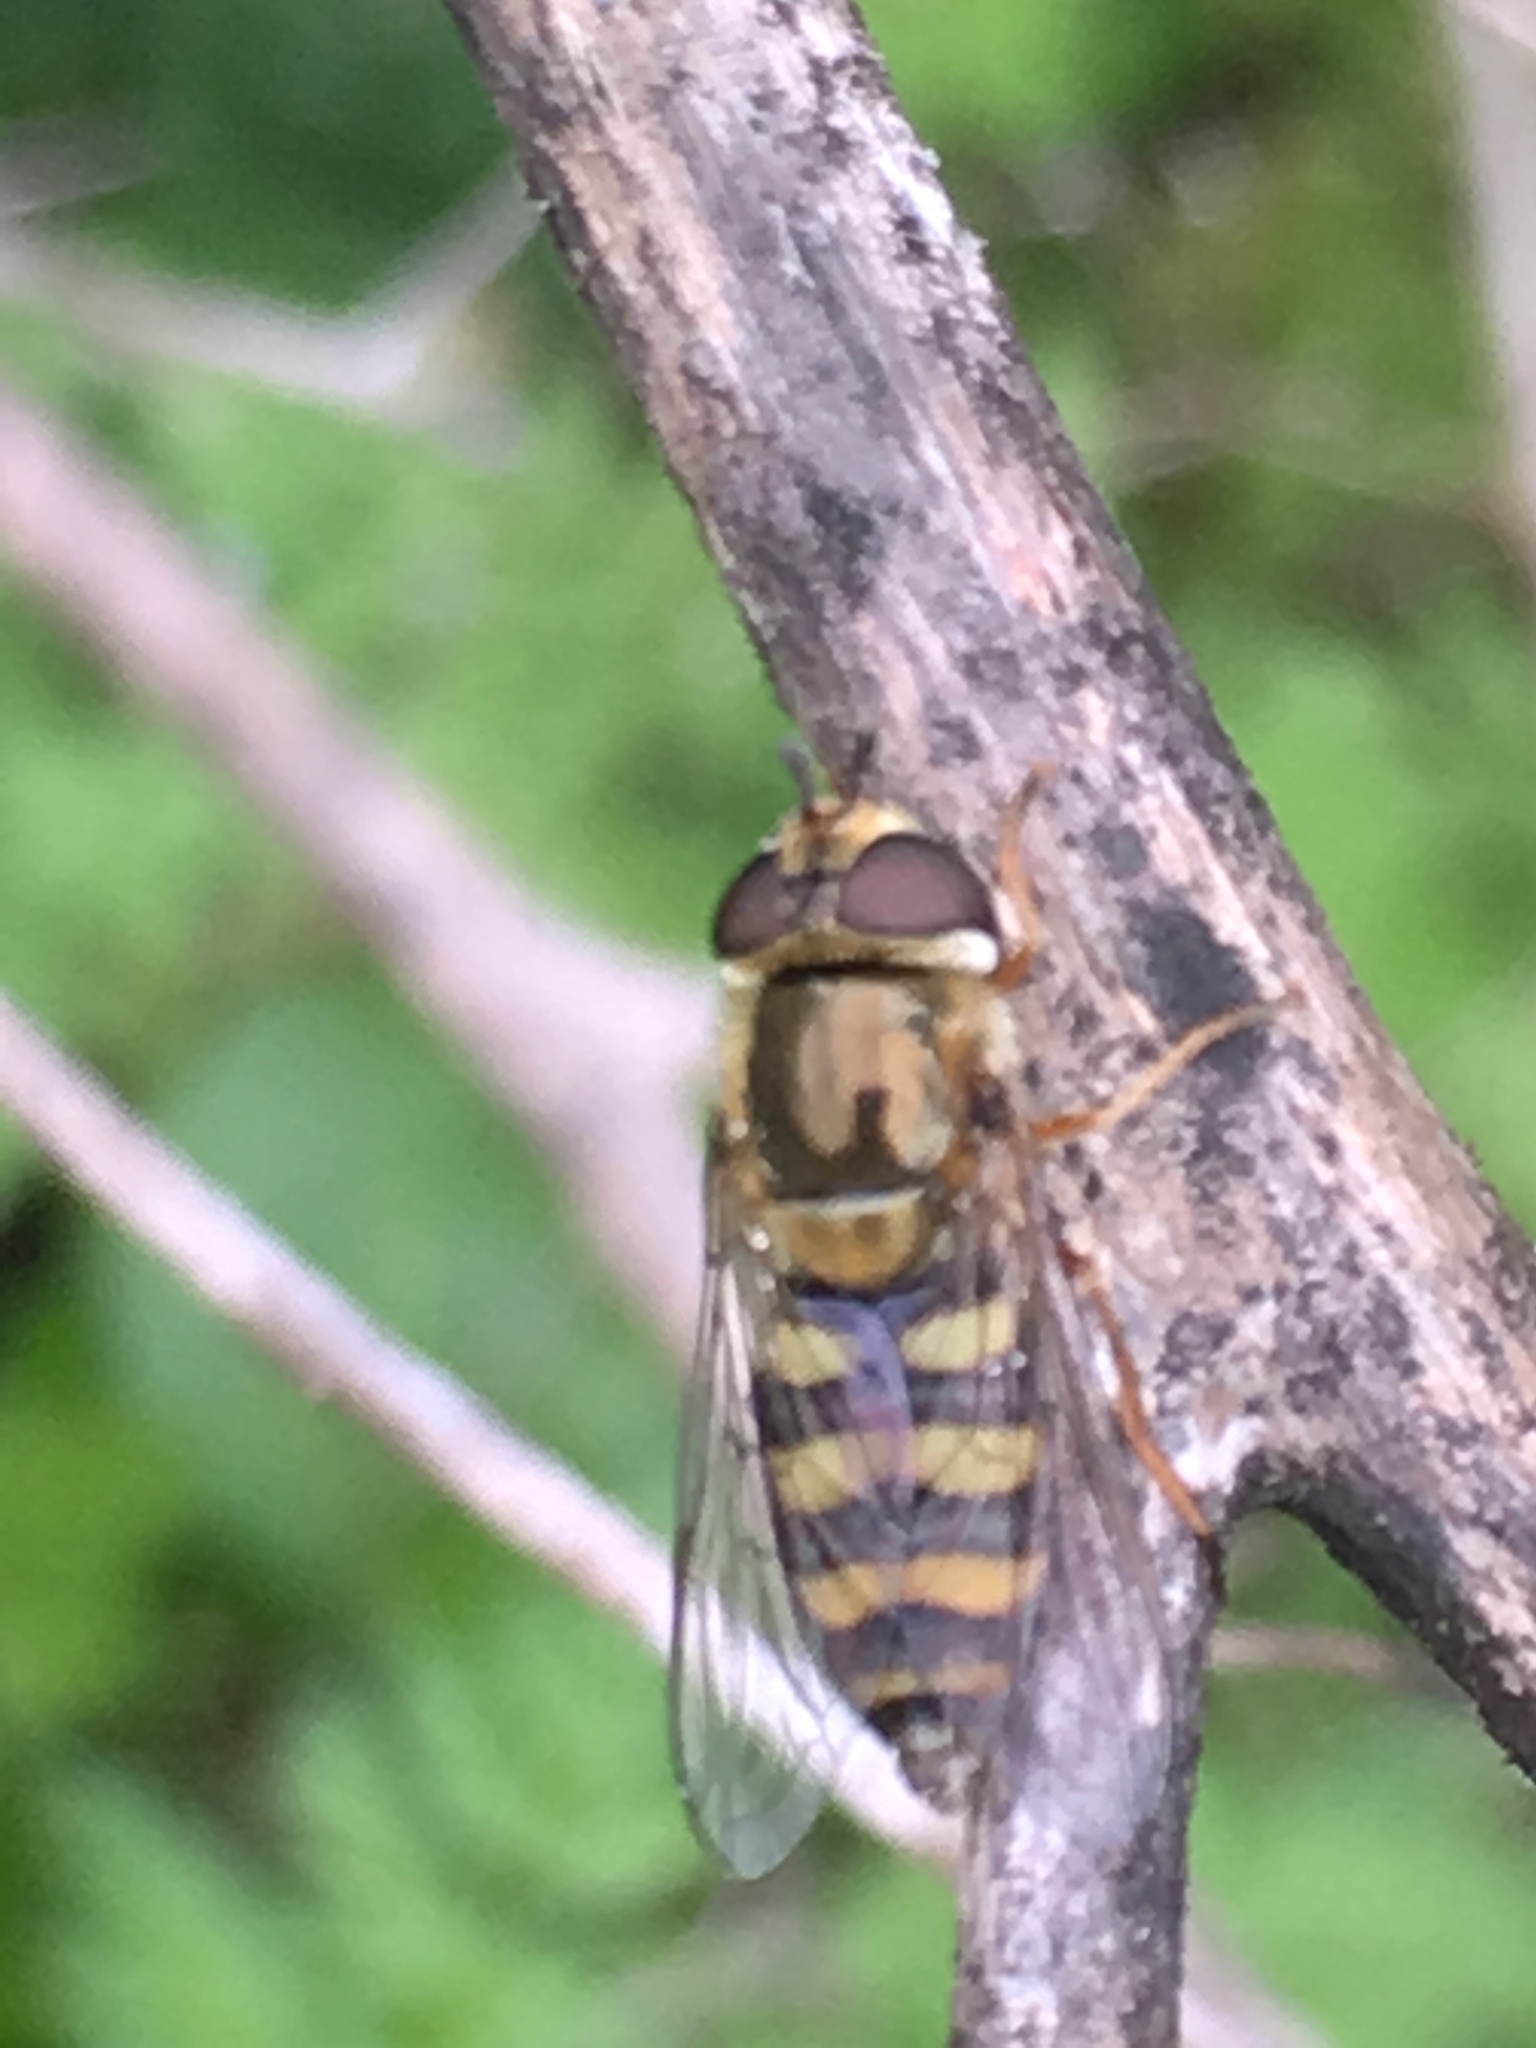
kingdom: Animalia
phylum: Arthropoda
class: Insecta
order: Diptera
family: Syrphidae
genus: Eupeodes
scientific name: Eupeodes fumipennis
